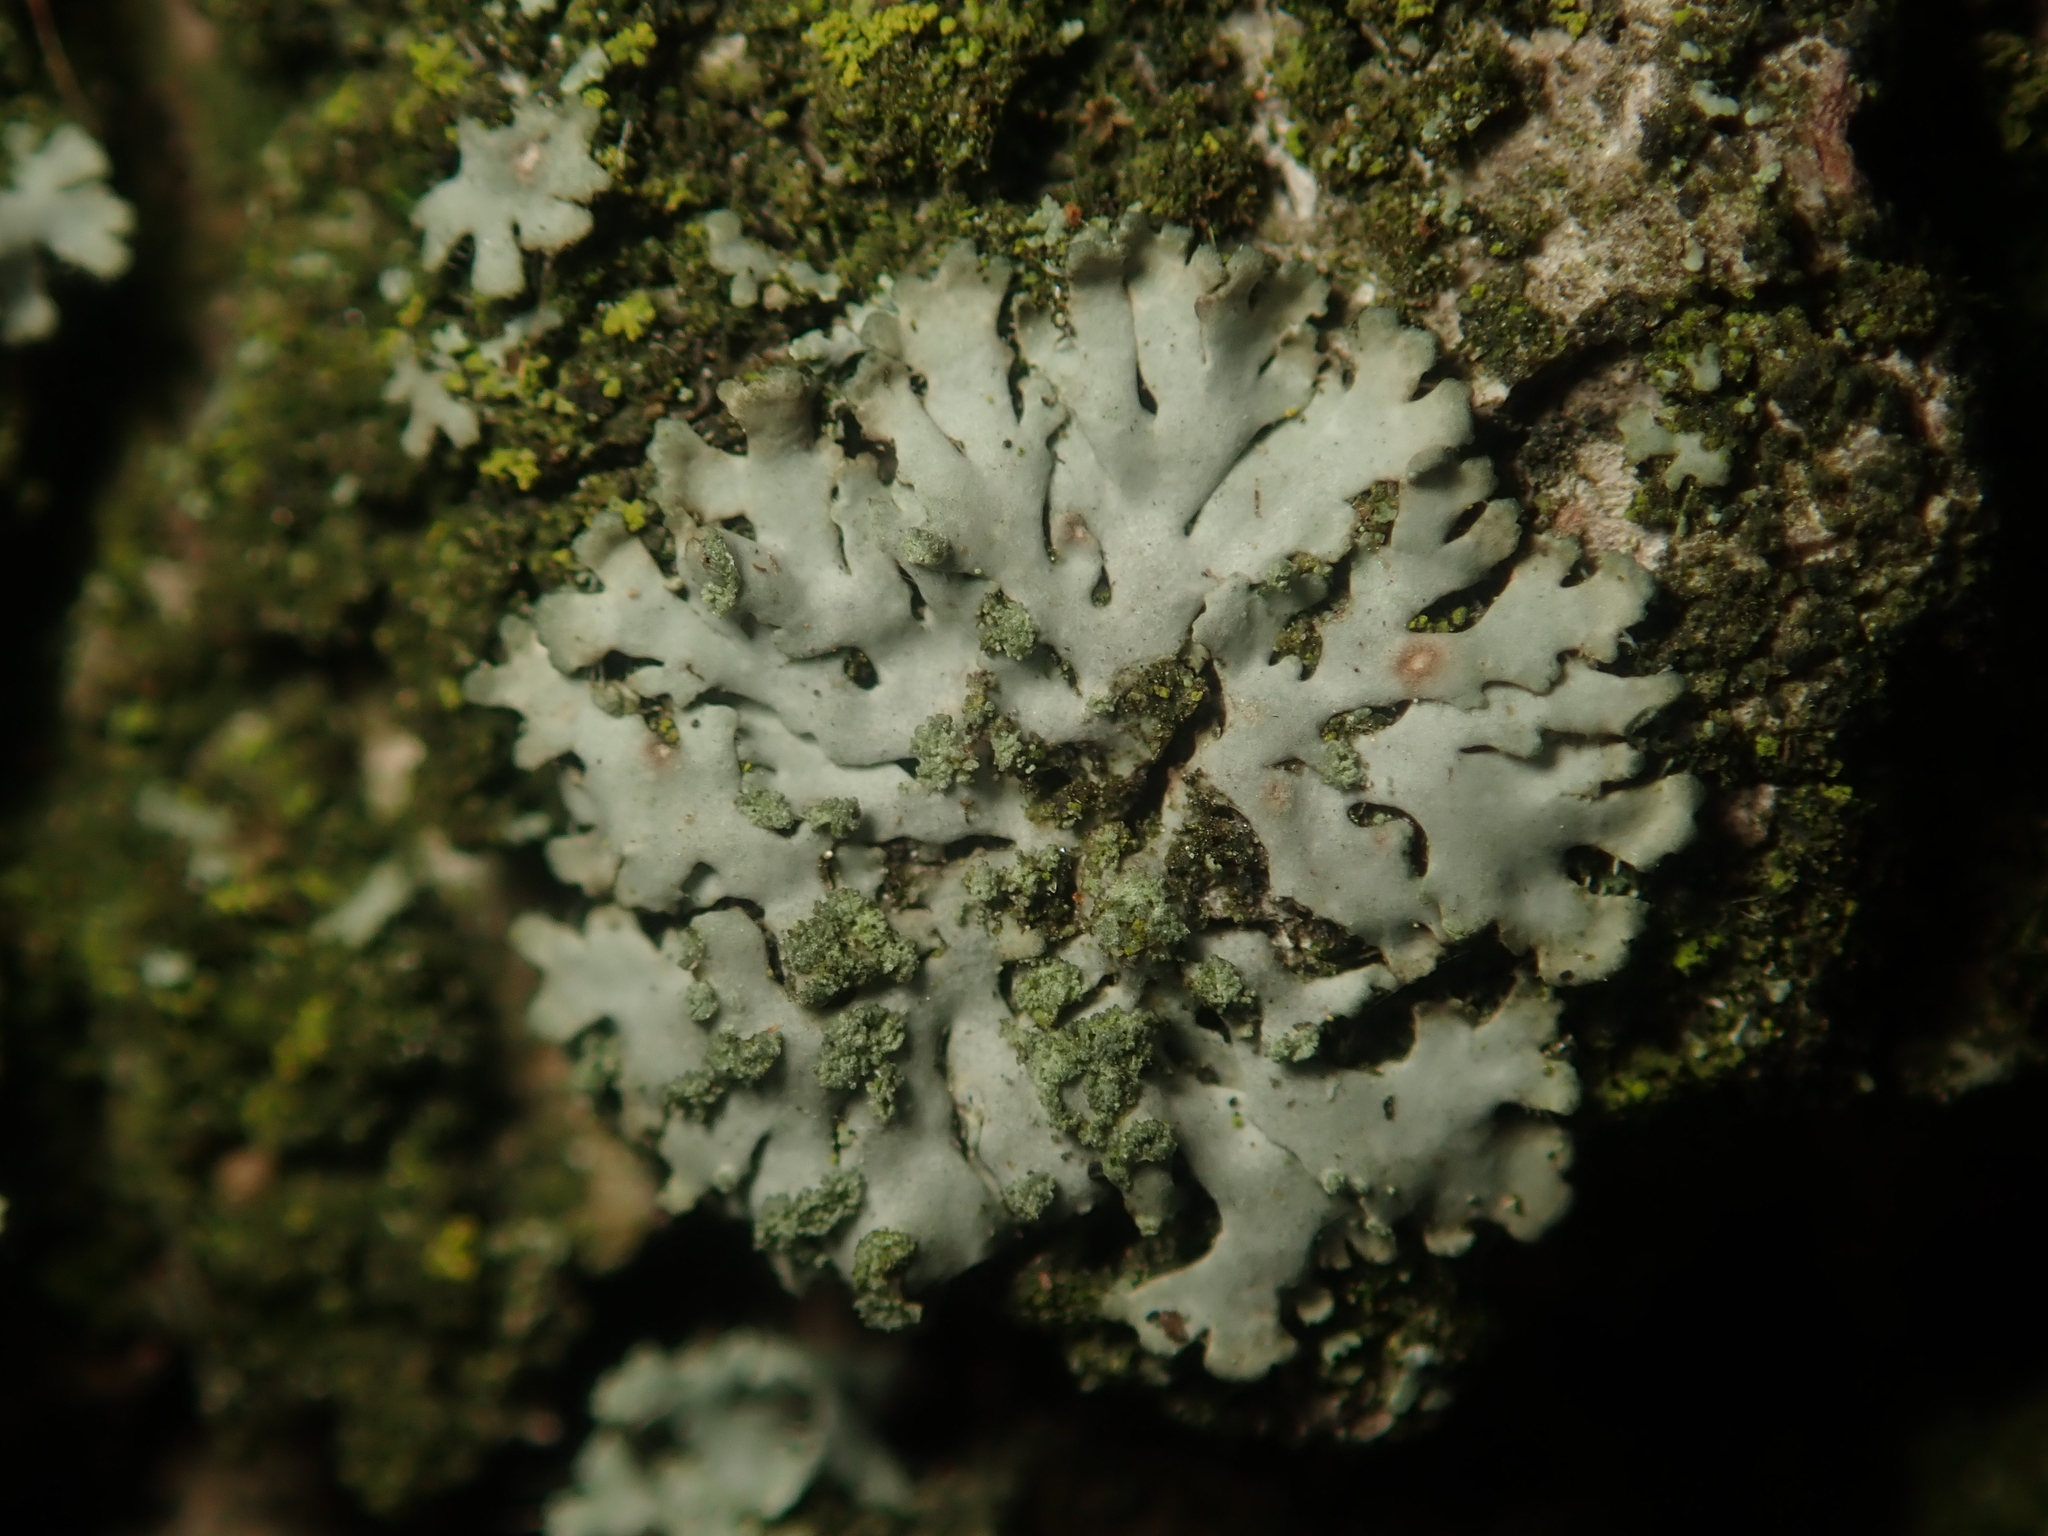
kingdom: Fungi
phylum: Ascomycota
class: Lecanoromycetes
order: Caliciales
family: Physciaceae
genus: Phaeophyscia
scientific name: Phaeophyscia orbicularis
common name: Mealy shadow lichen
